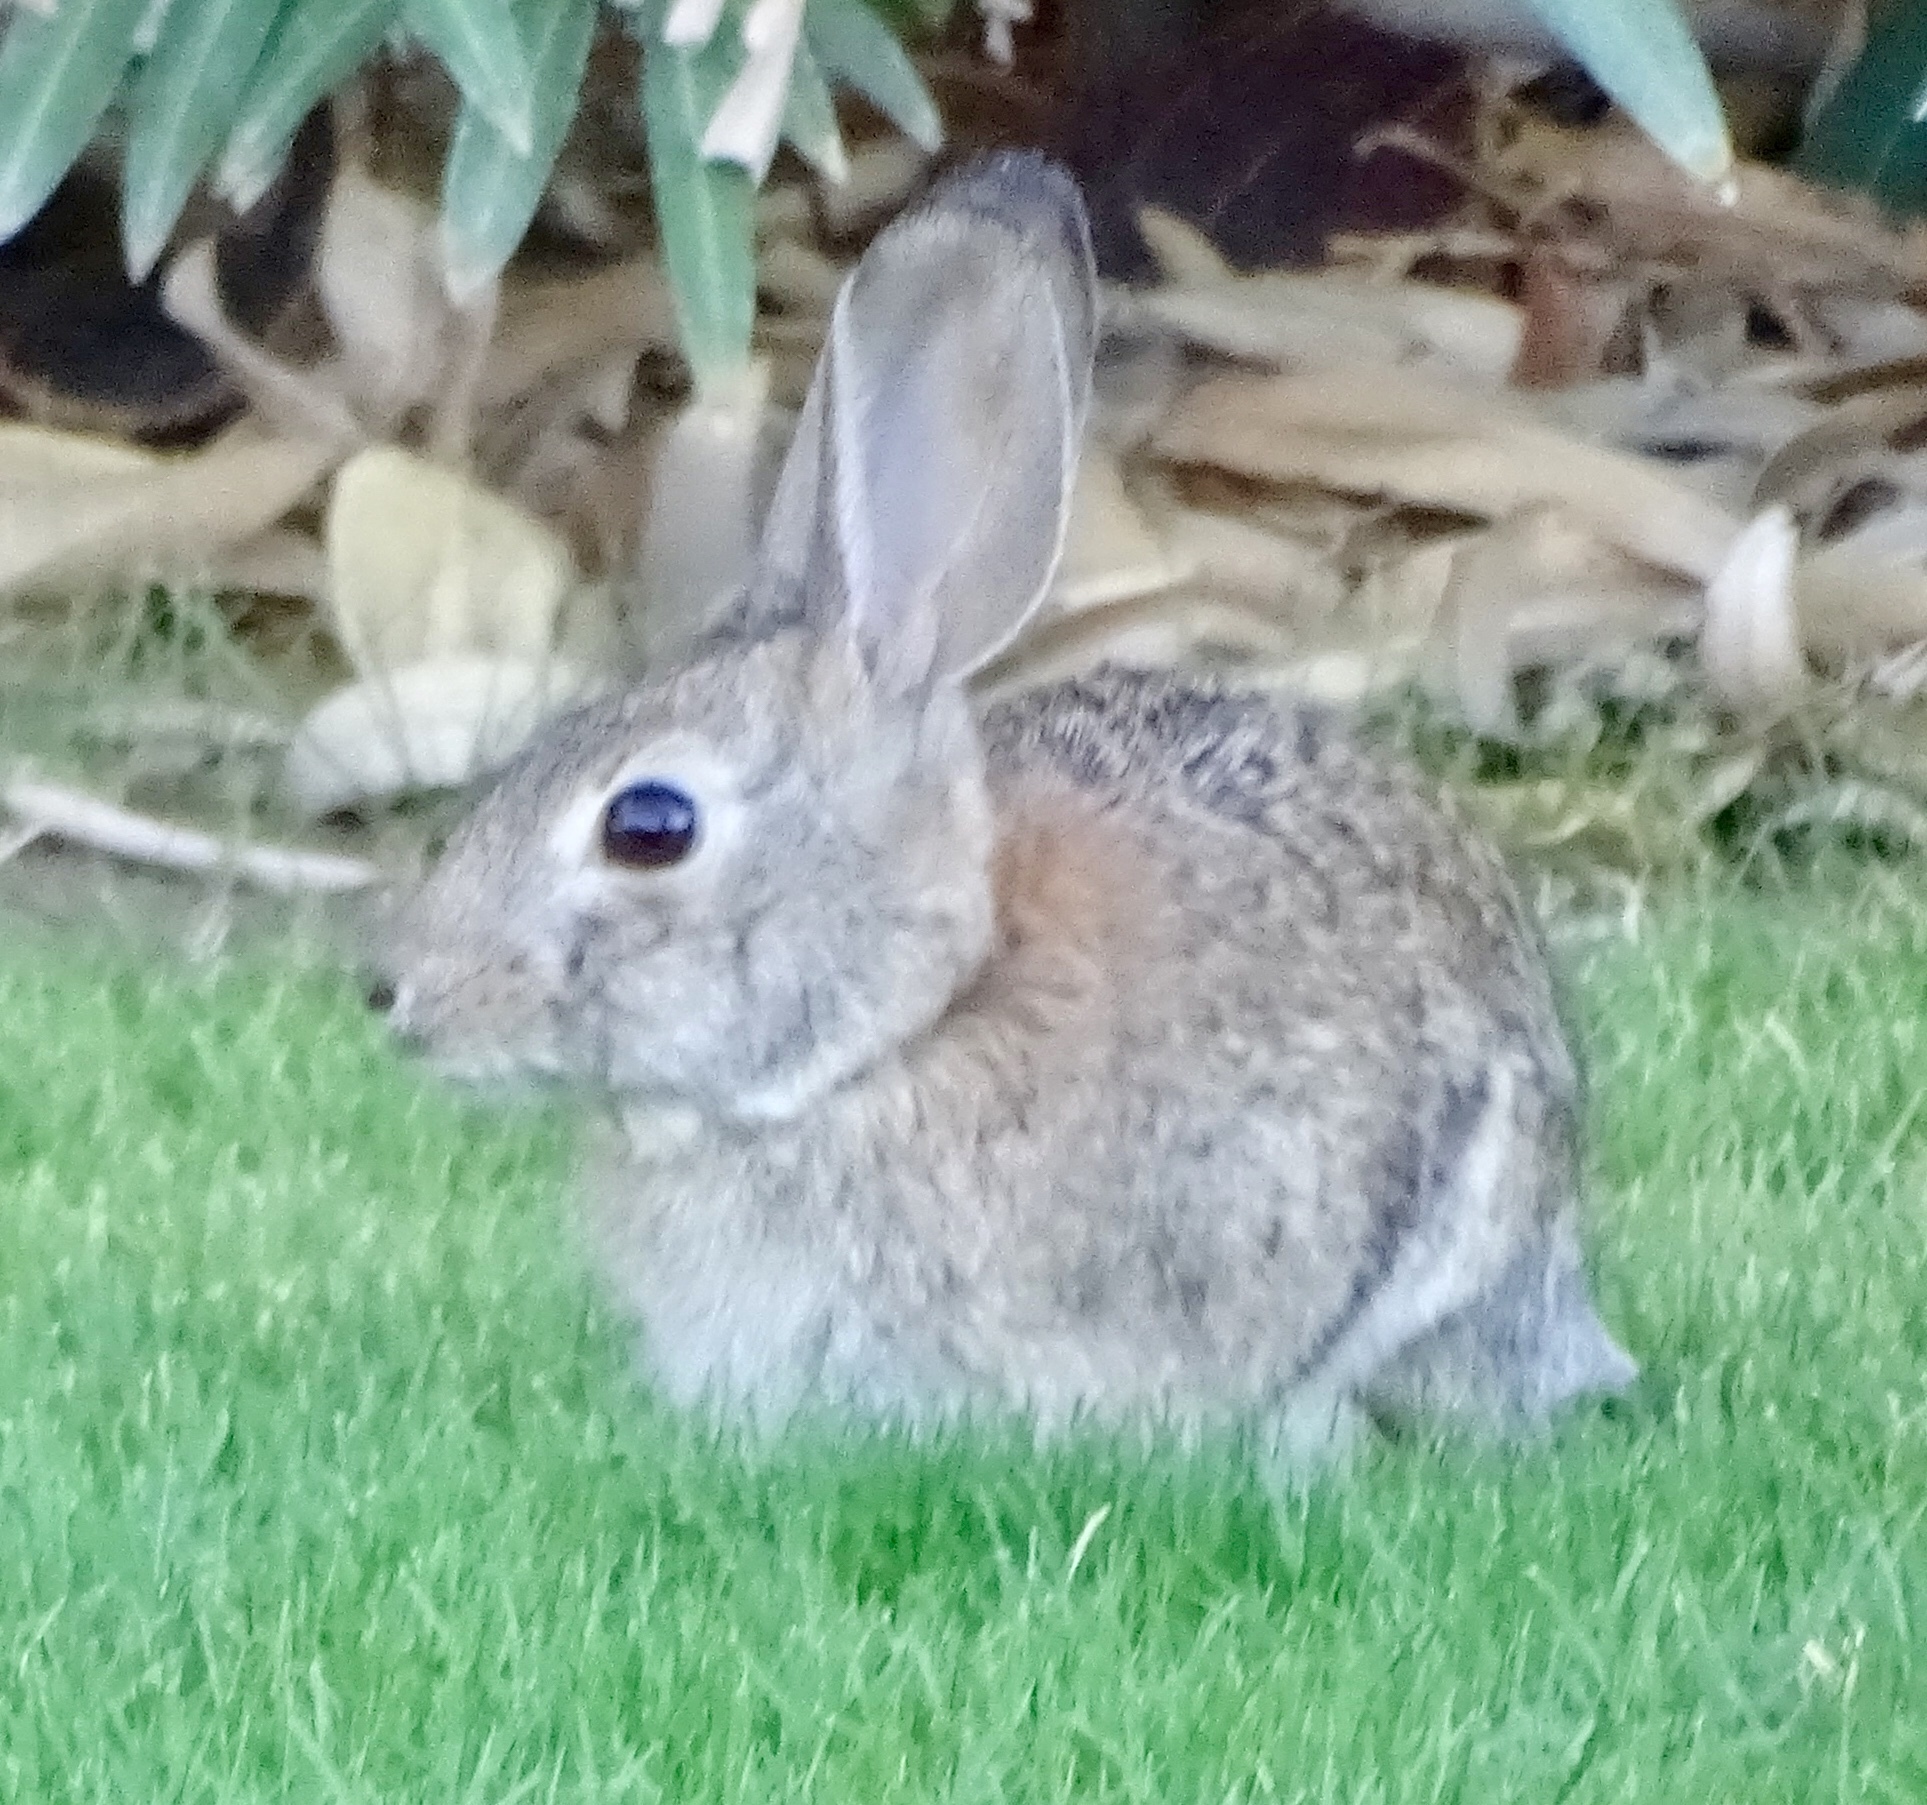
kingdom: Animalia
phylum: Chordata
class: Mammalia
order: Lagomorpha
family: Leporidae
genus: Sylvilagus
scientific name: Sylvilagus audubonii
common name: Desert cottontail
